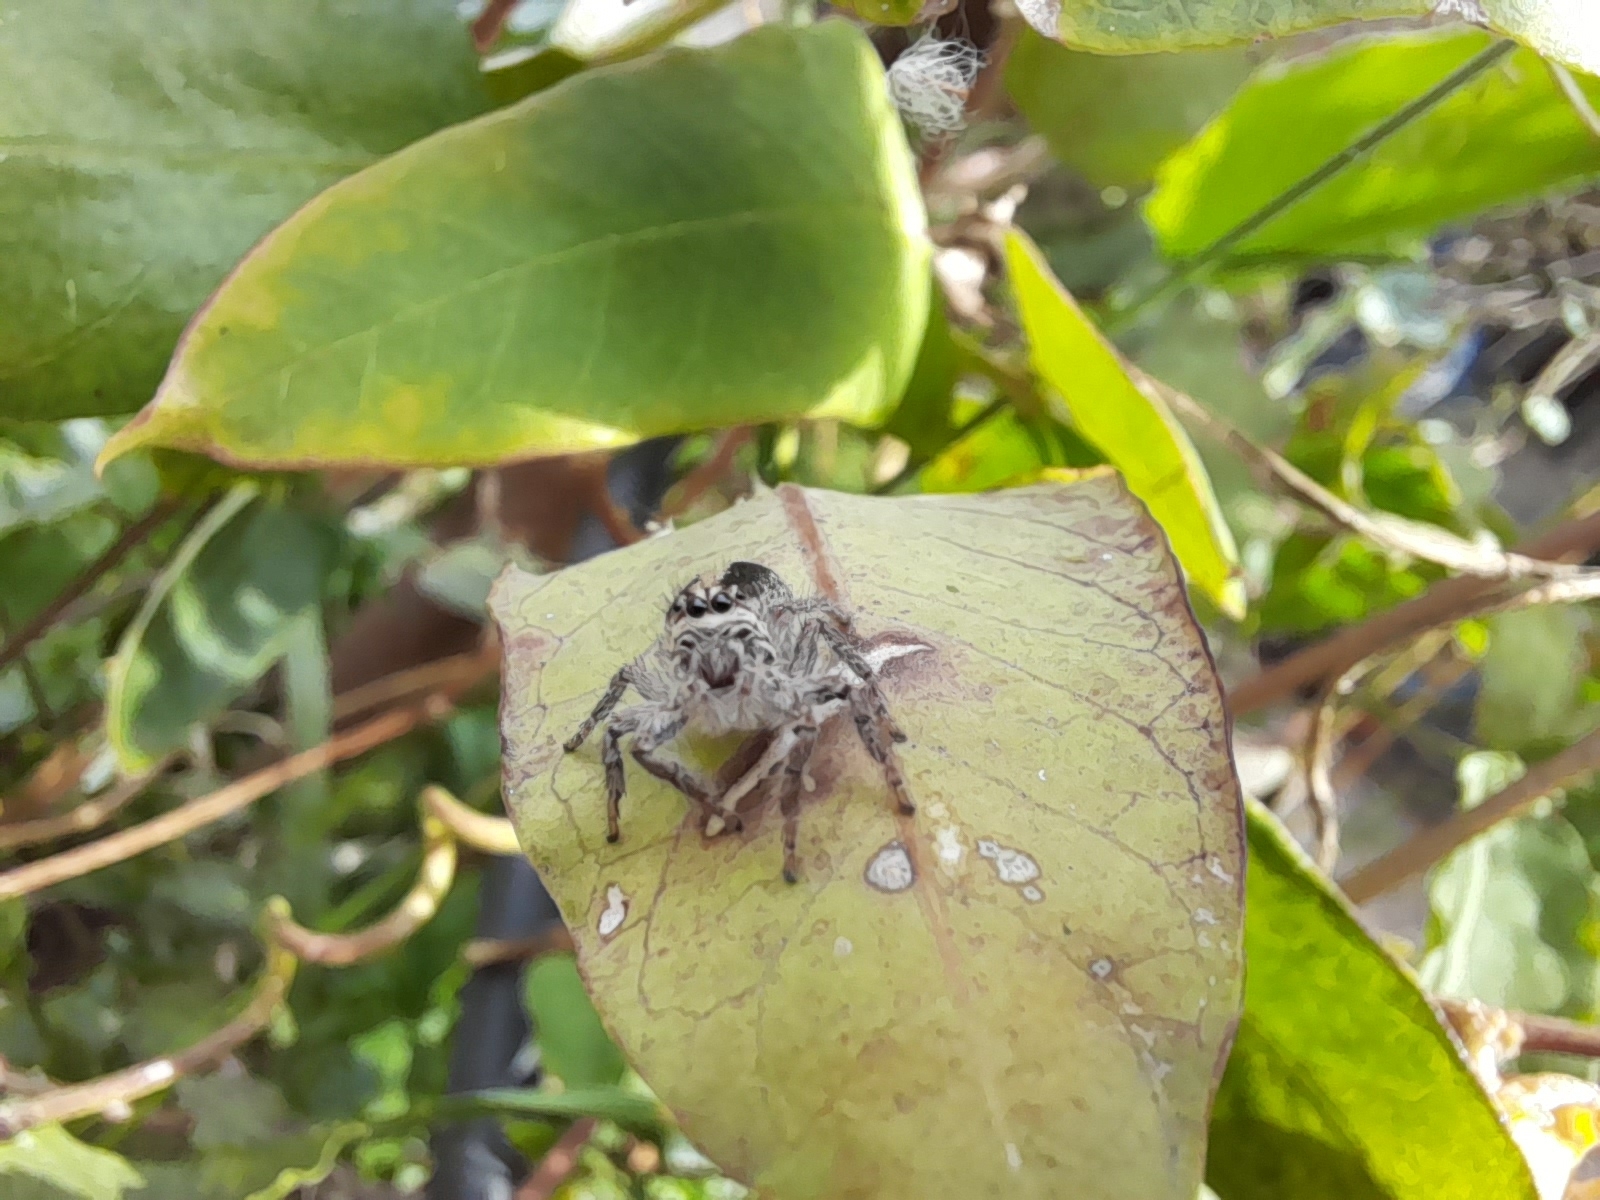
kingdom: Animalia
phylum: Arthropoda
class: Arachnida
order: Araneae
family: Salticidae
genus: Megafreya
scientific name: Megafreya sutrix
